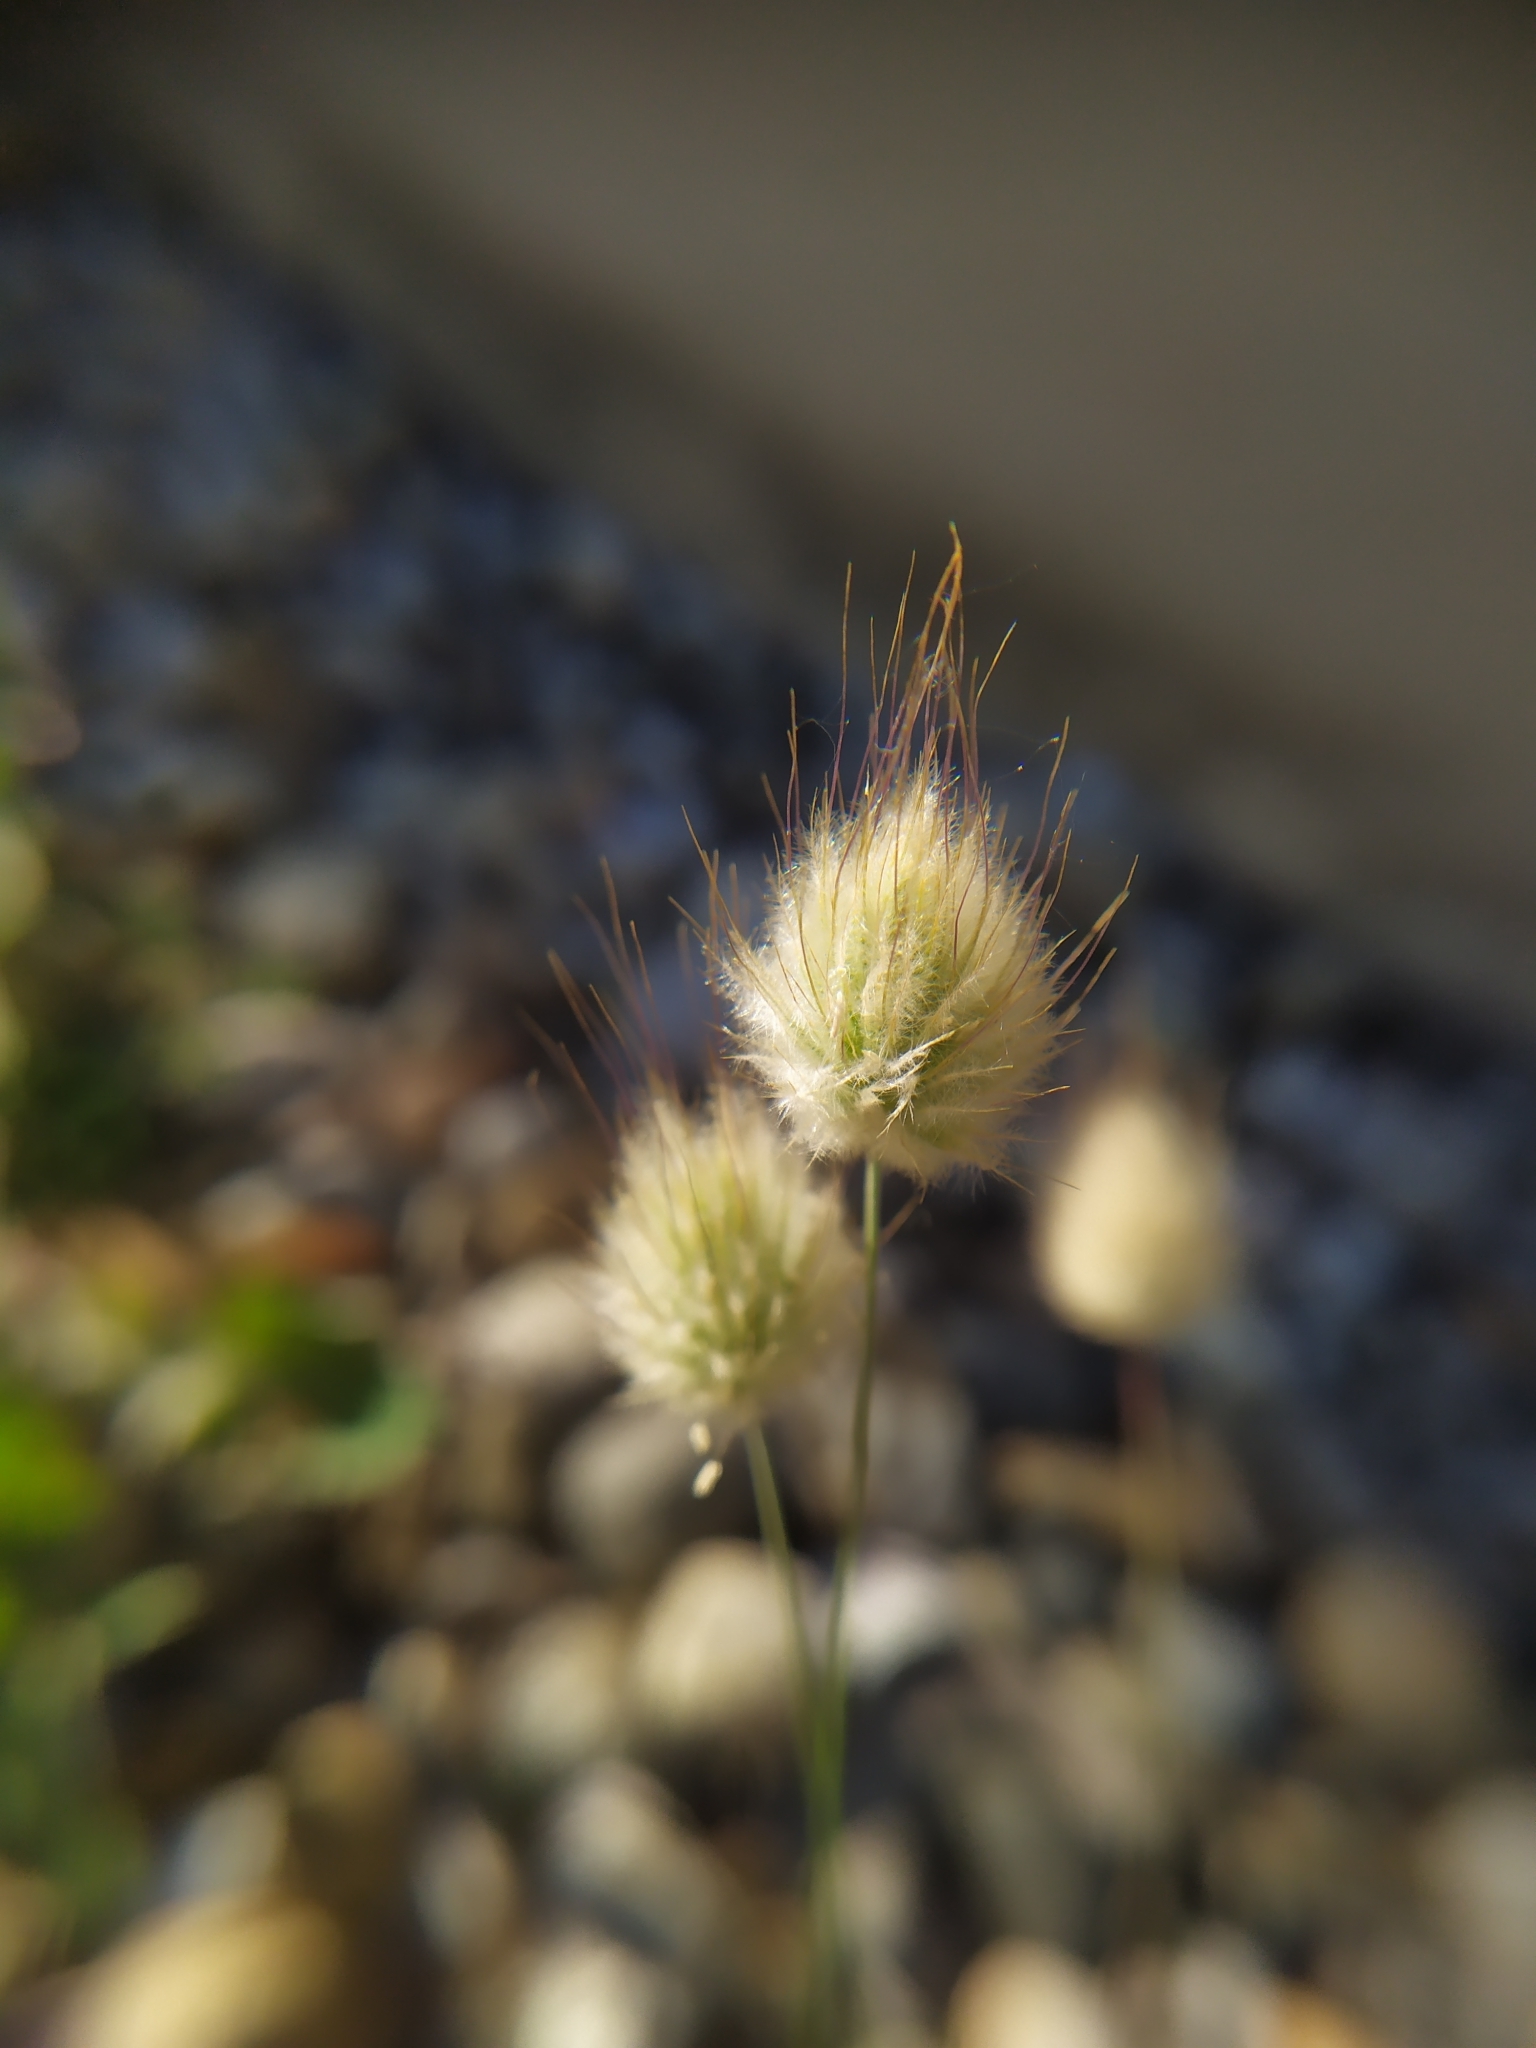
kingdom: Plantae
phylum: Tracheophyta
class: Liliopsida
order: Poales
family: Poaceae
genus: Lagurus
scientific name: Lagurus ovatus
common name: Hare's-tail
